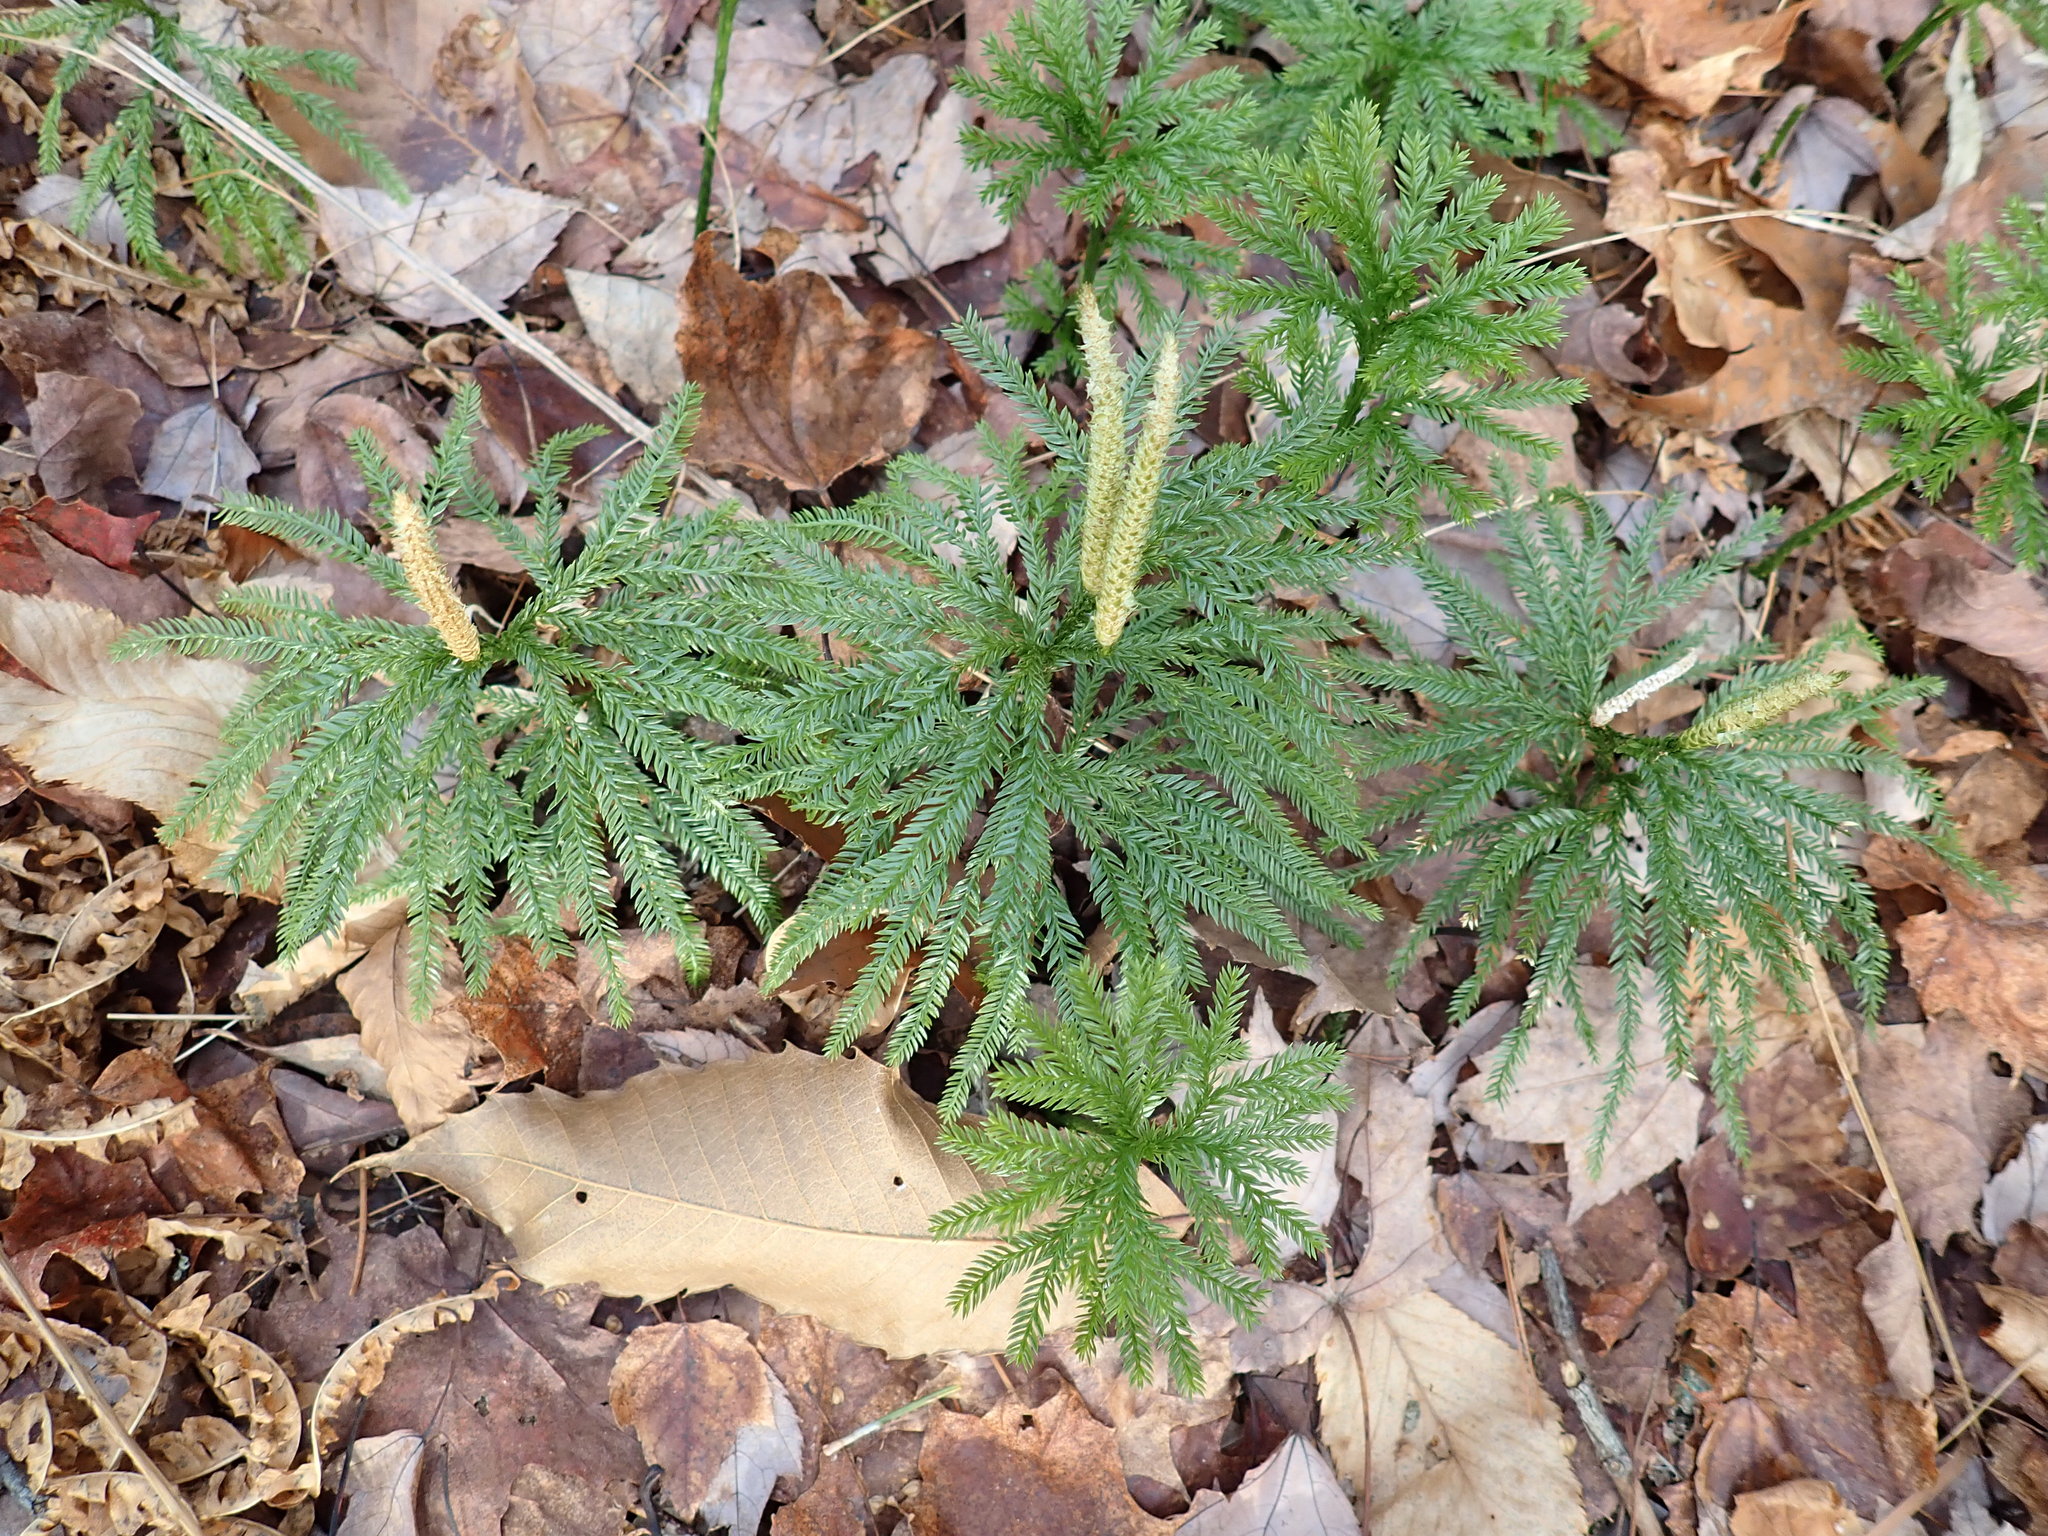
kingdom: Plantae
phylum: Tracheophyta
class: Lycopodiopsida
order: Lycopodiales
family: Lycopodiaceae
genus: Dendrolycopodium
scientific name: Dendrolycopodium obscurum
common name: Common ground-pine
